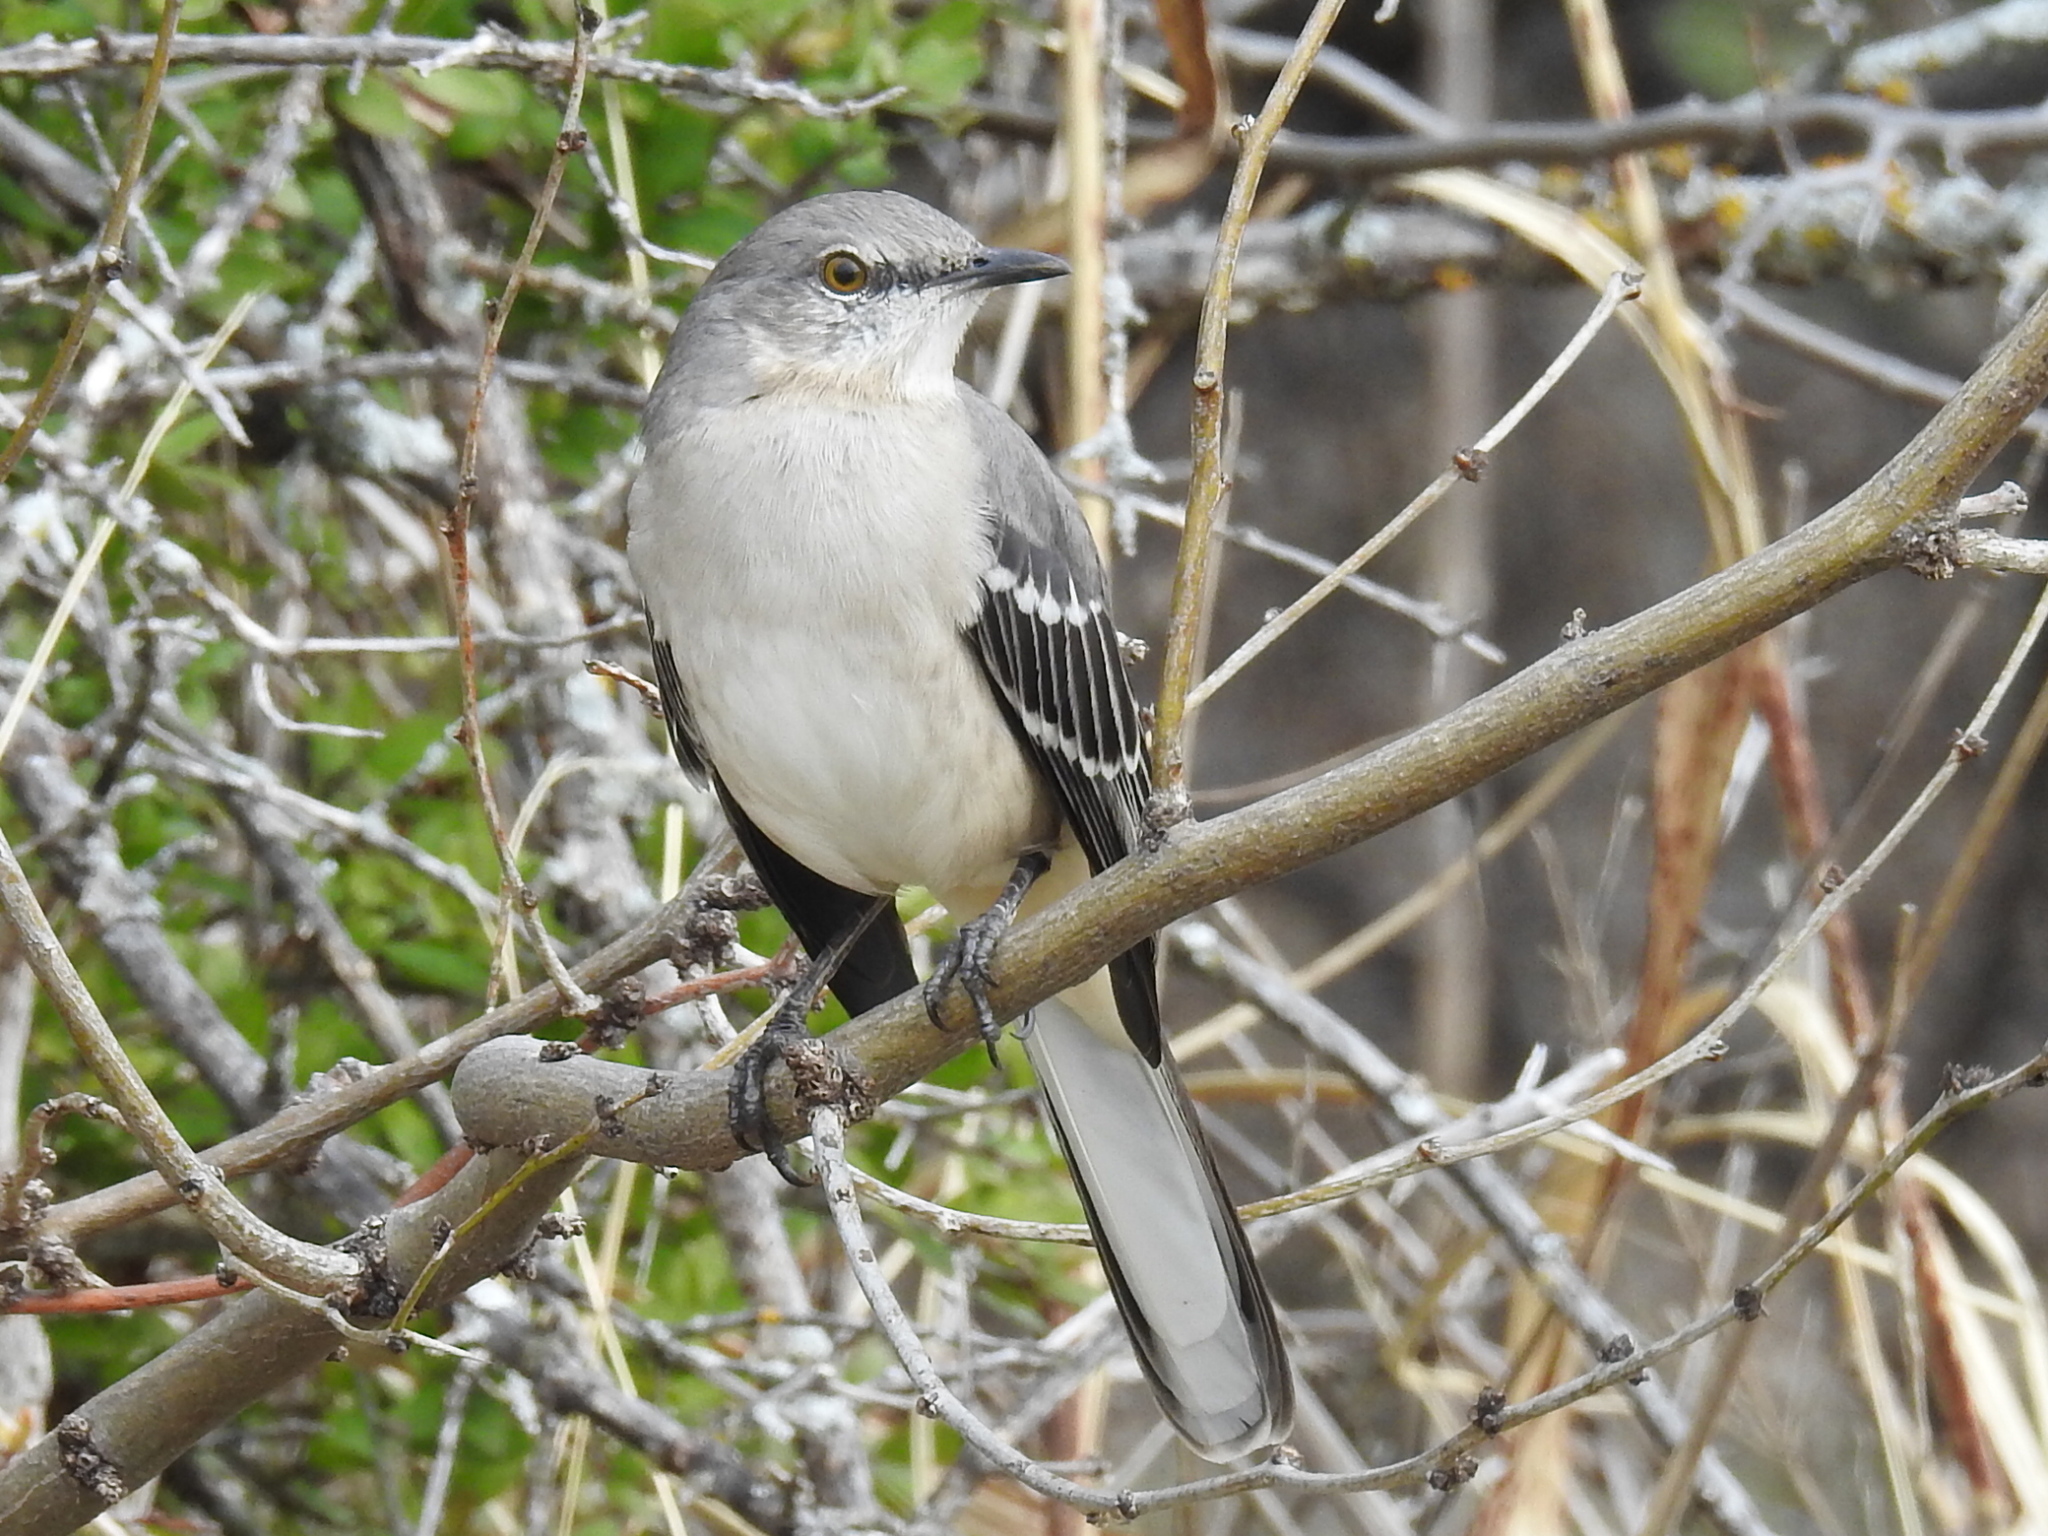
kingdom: Animalia
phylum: Chordata
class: Aves
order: Passeriformes
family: Mimidae
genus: Mimus
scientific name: Mimus polyglottos
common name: Northern mockingbird
